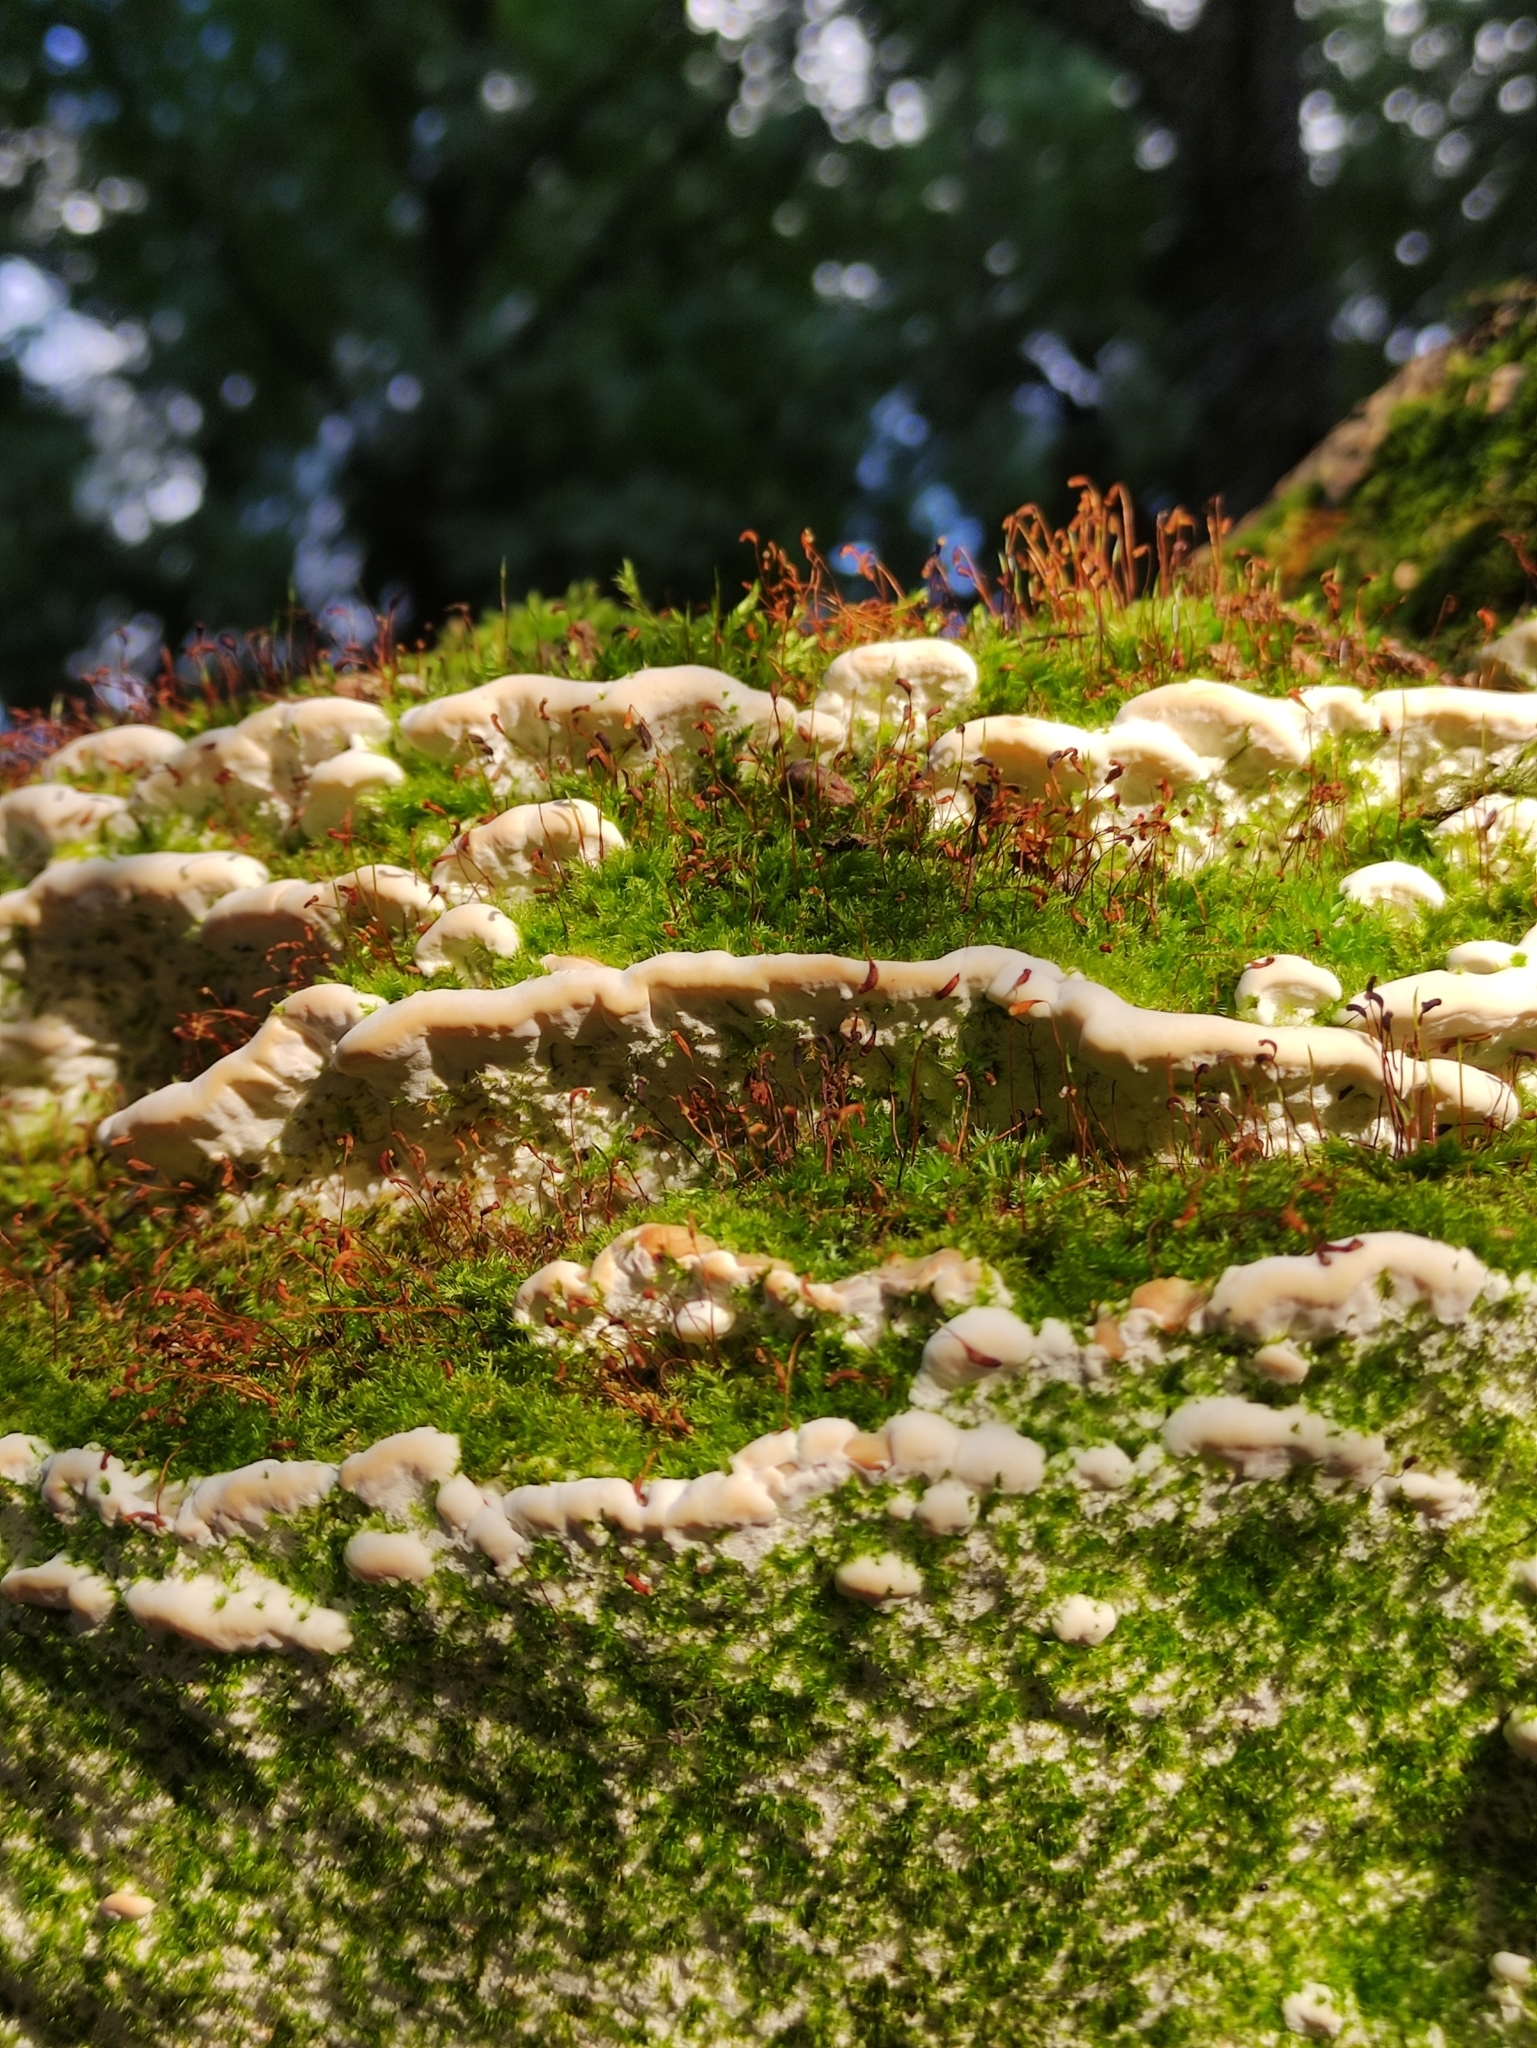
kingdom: Plantae
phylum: Bryophyta
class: Bryopsida
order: Dicranales
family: Ditrichaceae
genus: Ceratodon
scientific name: Ceratodon purpureus
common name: Redshank
